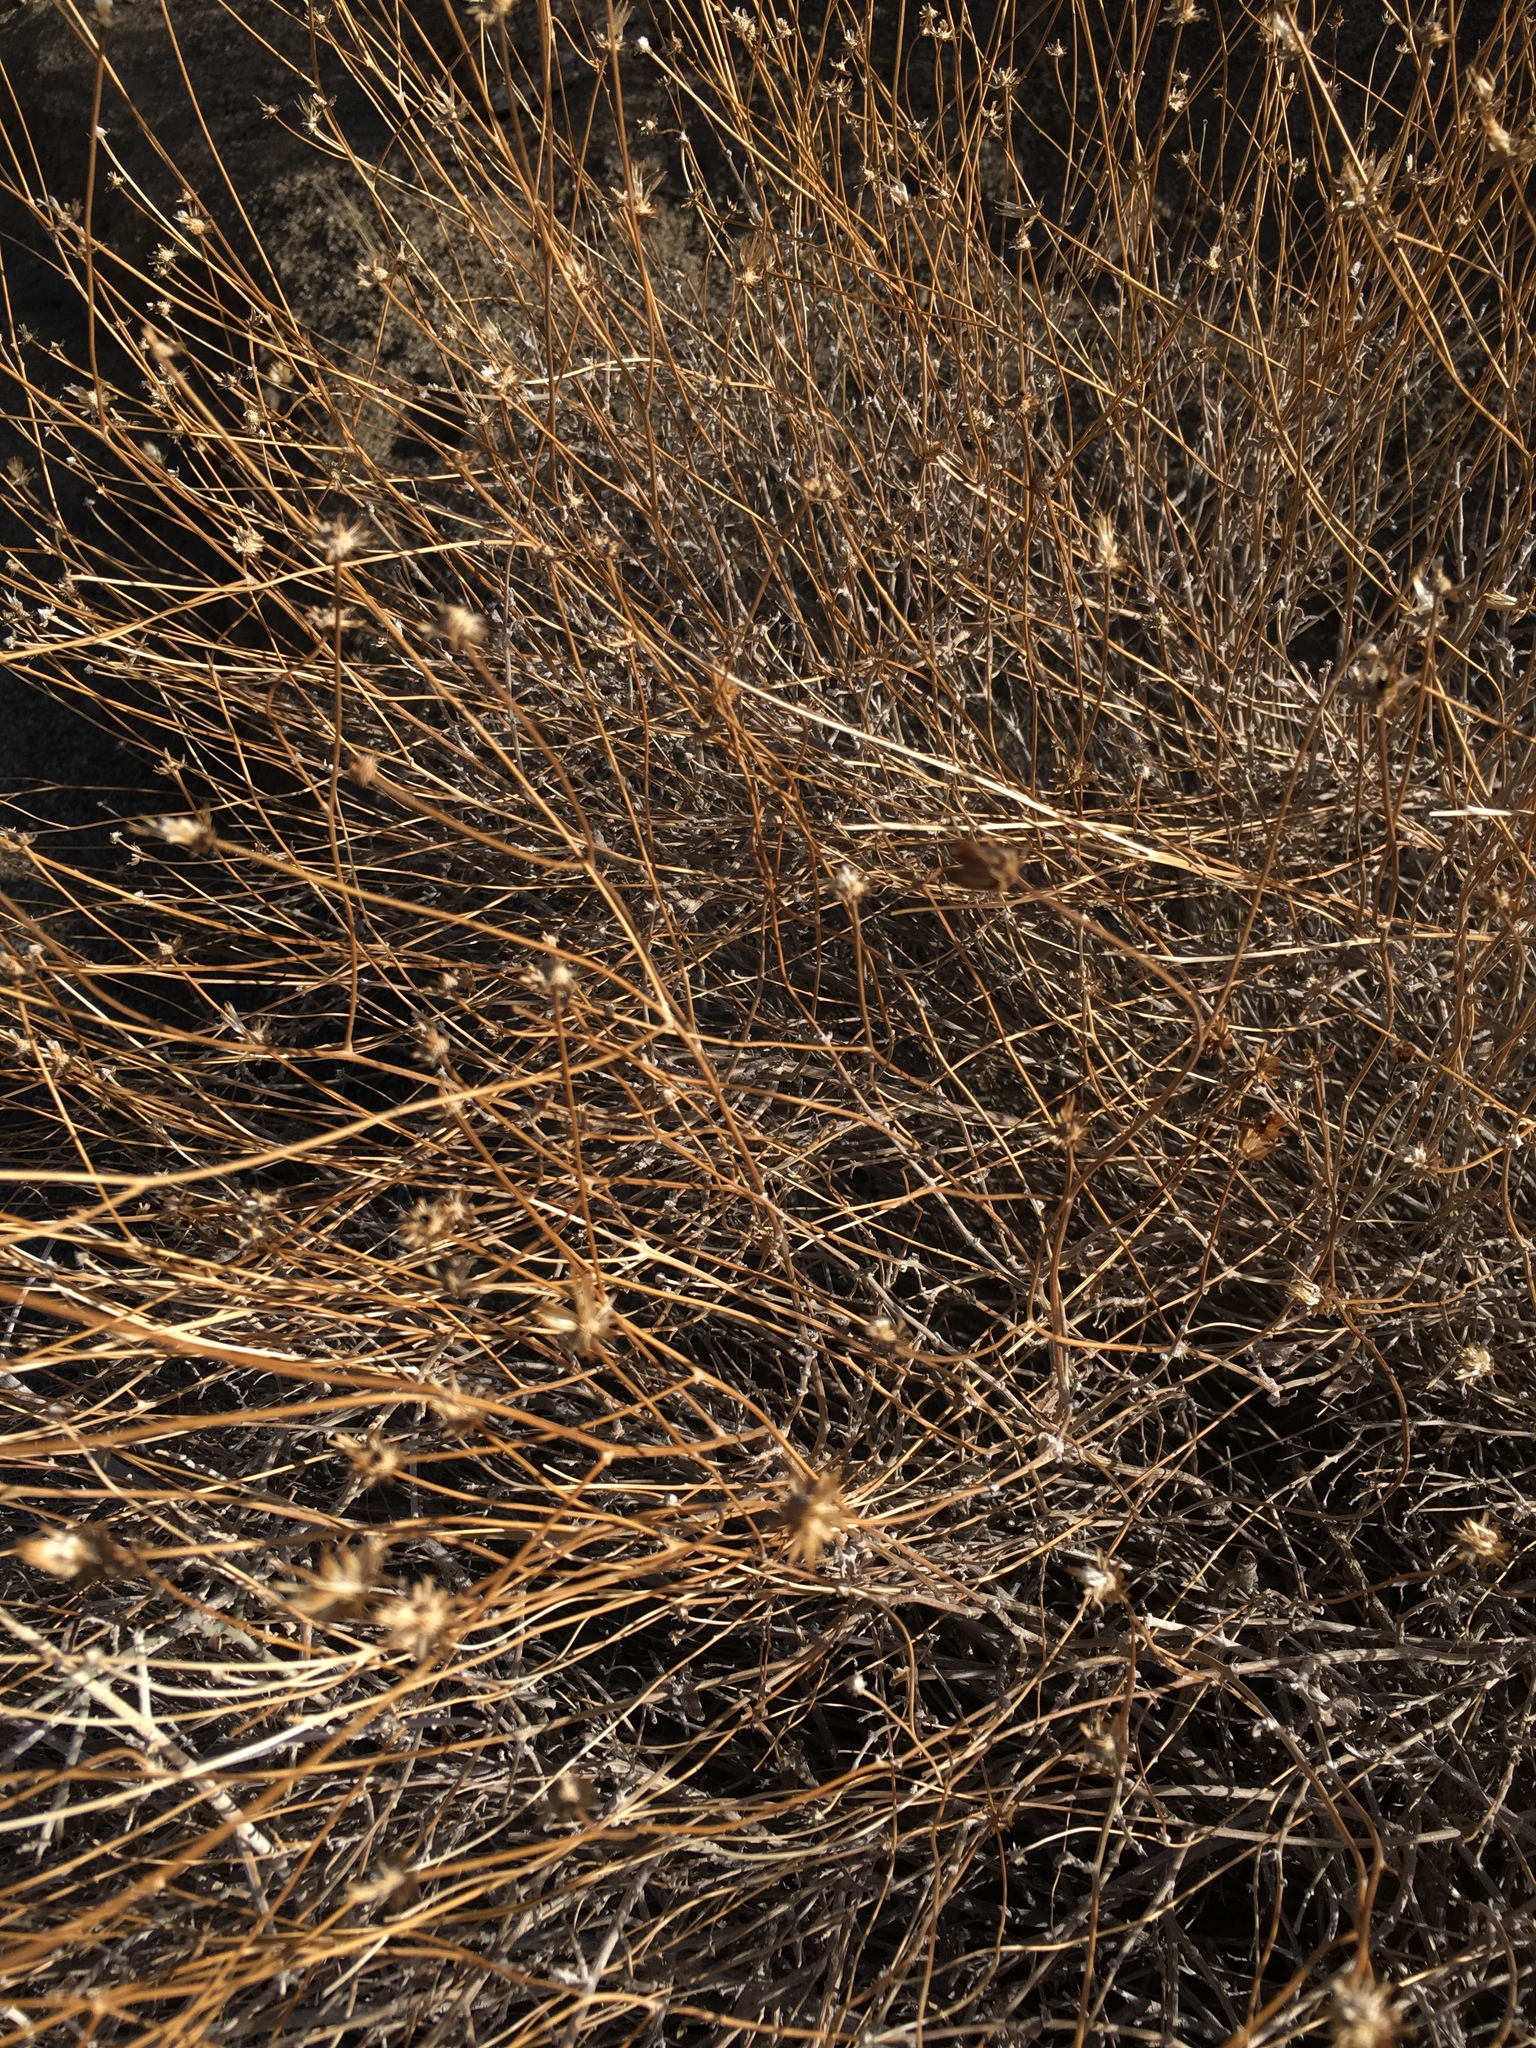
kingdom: Plantae
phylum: Tracheophyta
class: Magnoliopsida
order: Asterales
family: Asteraceae
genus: Bebbia
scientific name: Bebbia juncea
